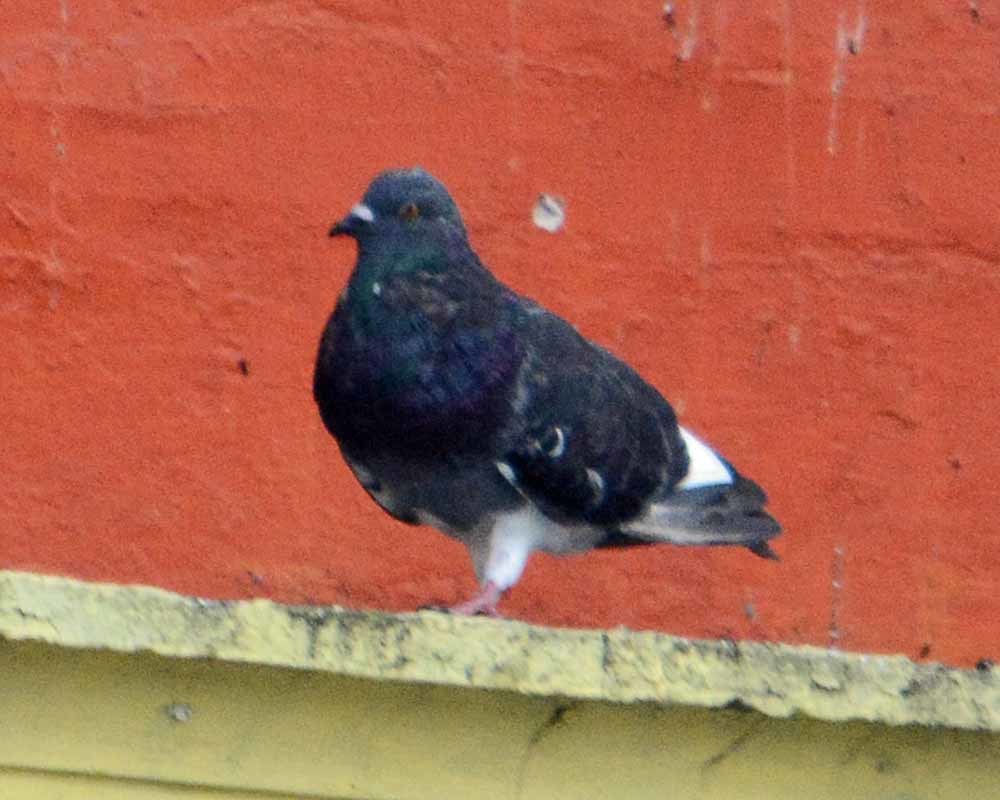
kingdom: Animalia
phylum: Chordata
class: Aves
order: Columbiformes
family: Columbidae
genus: Columba
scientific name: Columba livia
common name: Rock pigeon
